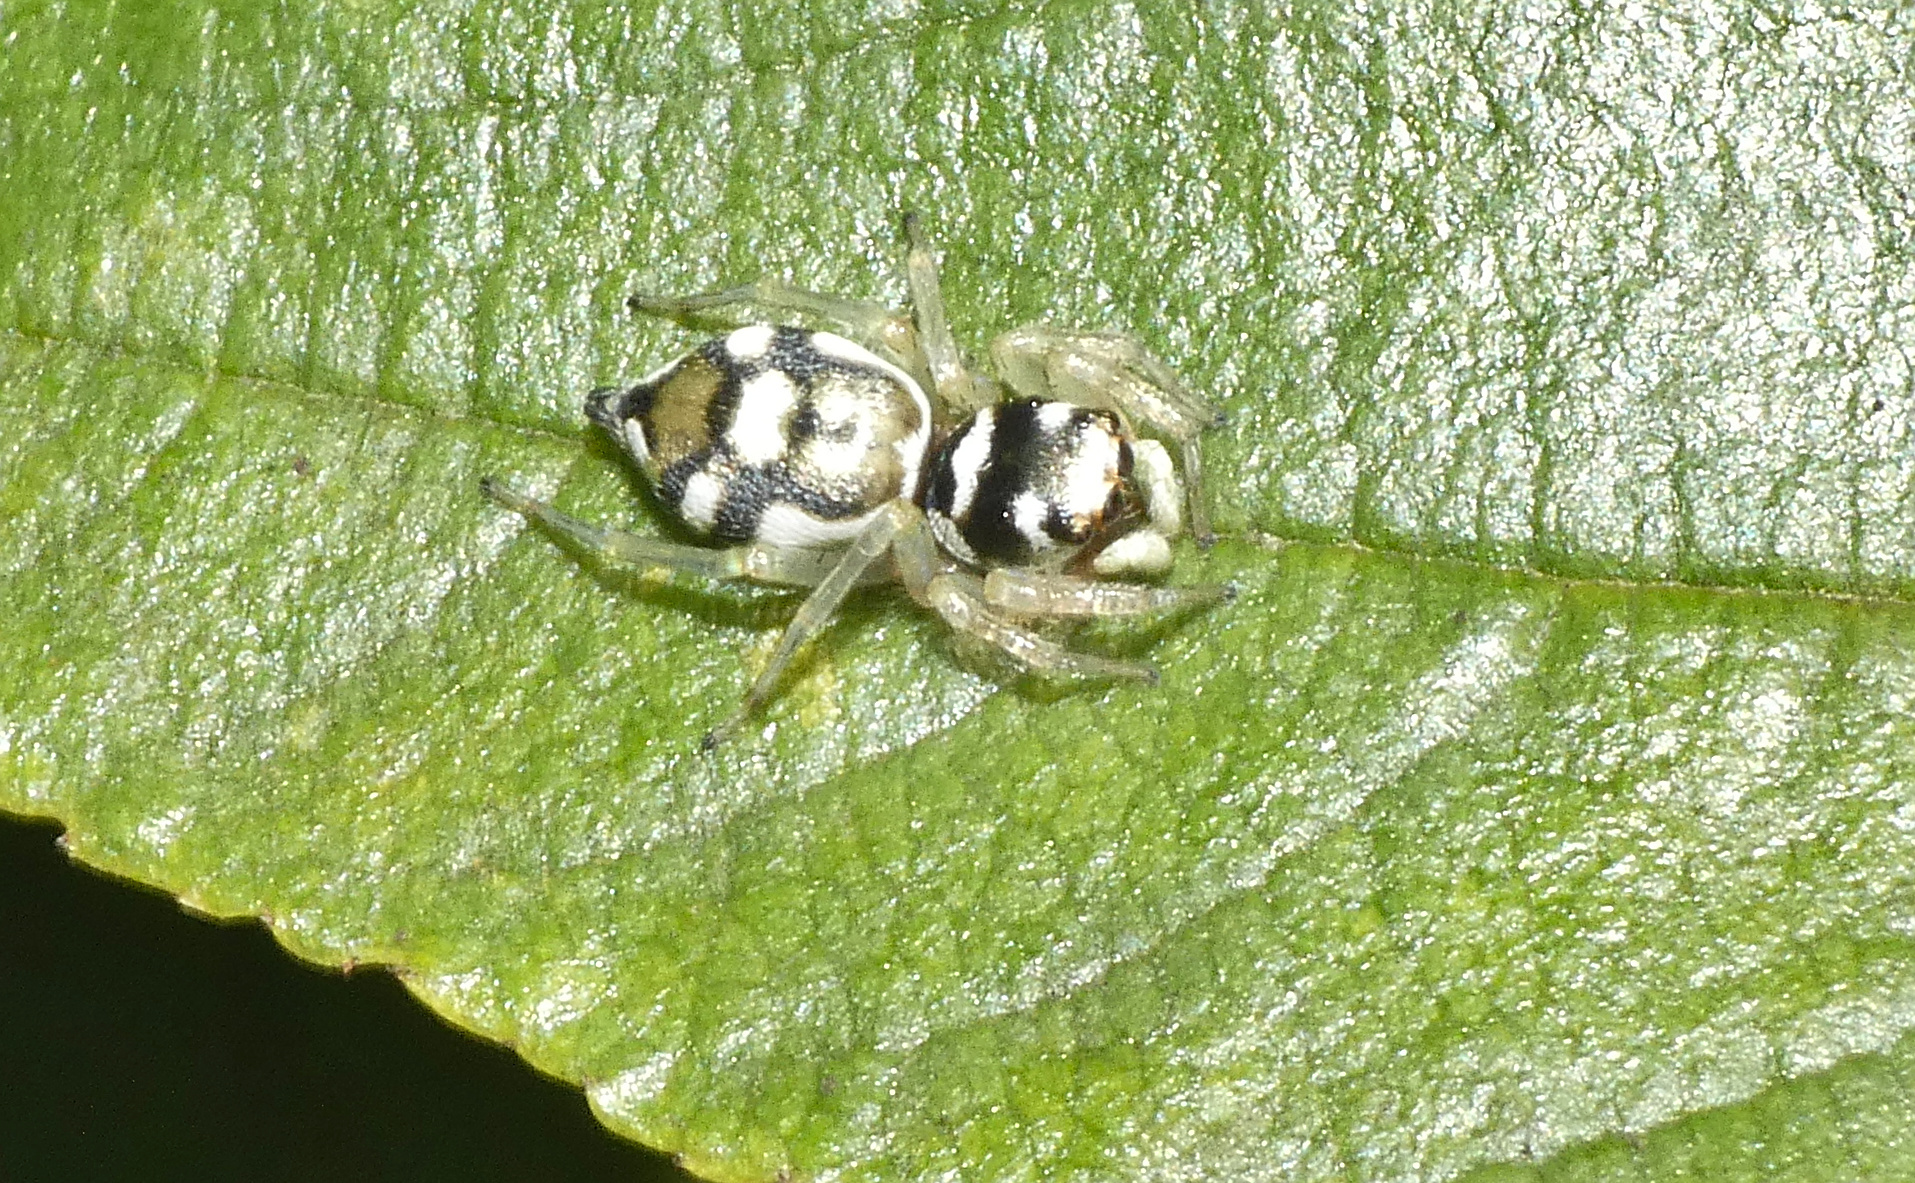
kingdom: Animalia
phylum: Arthropoda
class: Arachnida
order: Araneae
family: Salticidae
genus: Phintella
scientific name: Phintella aequipes
